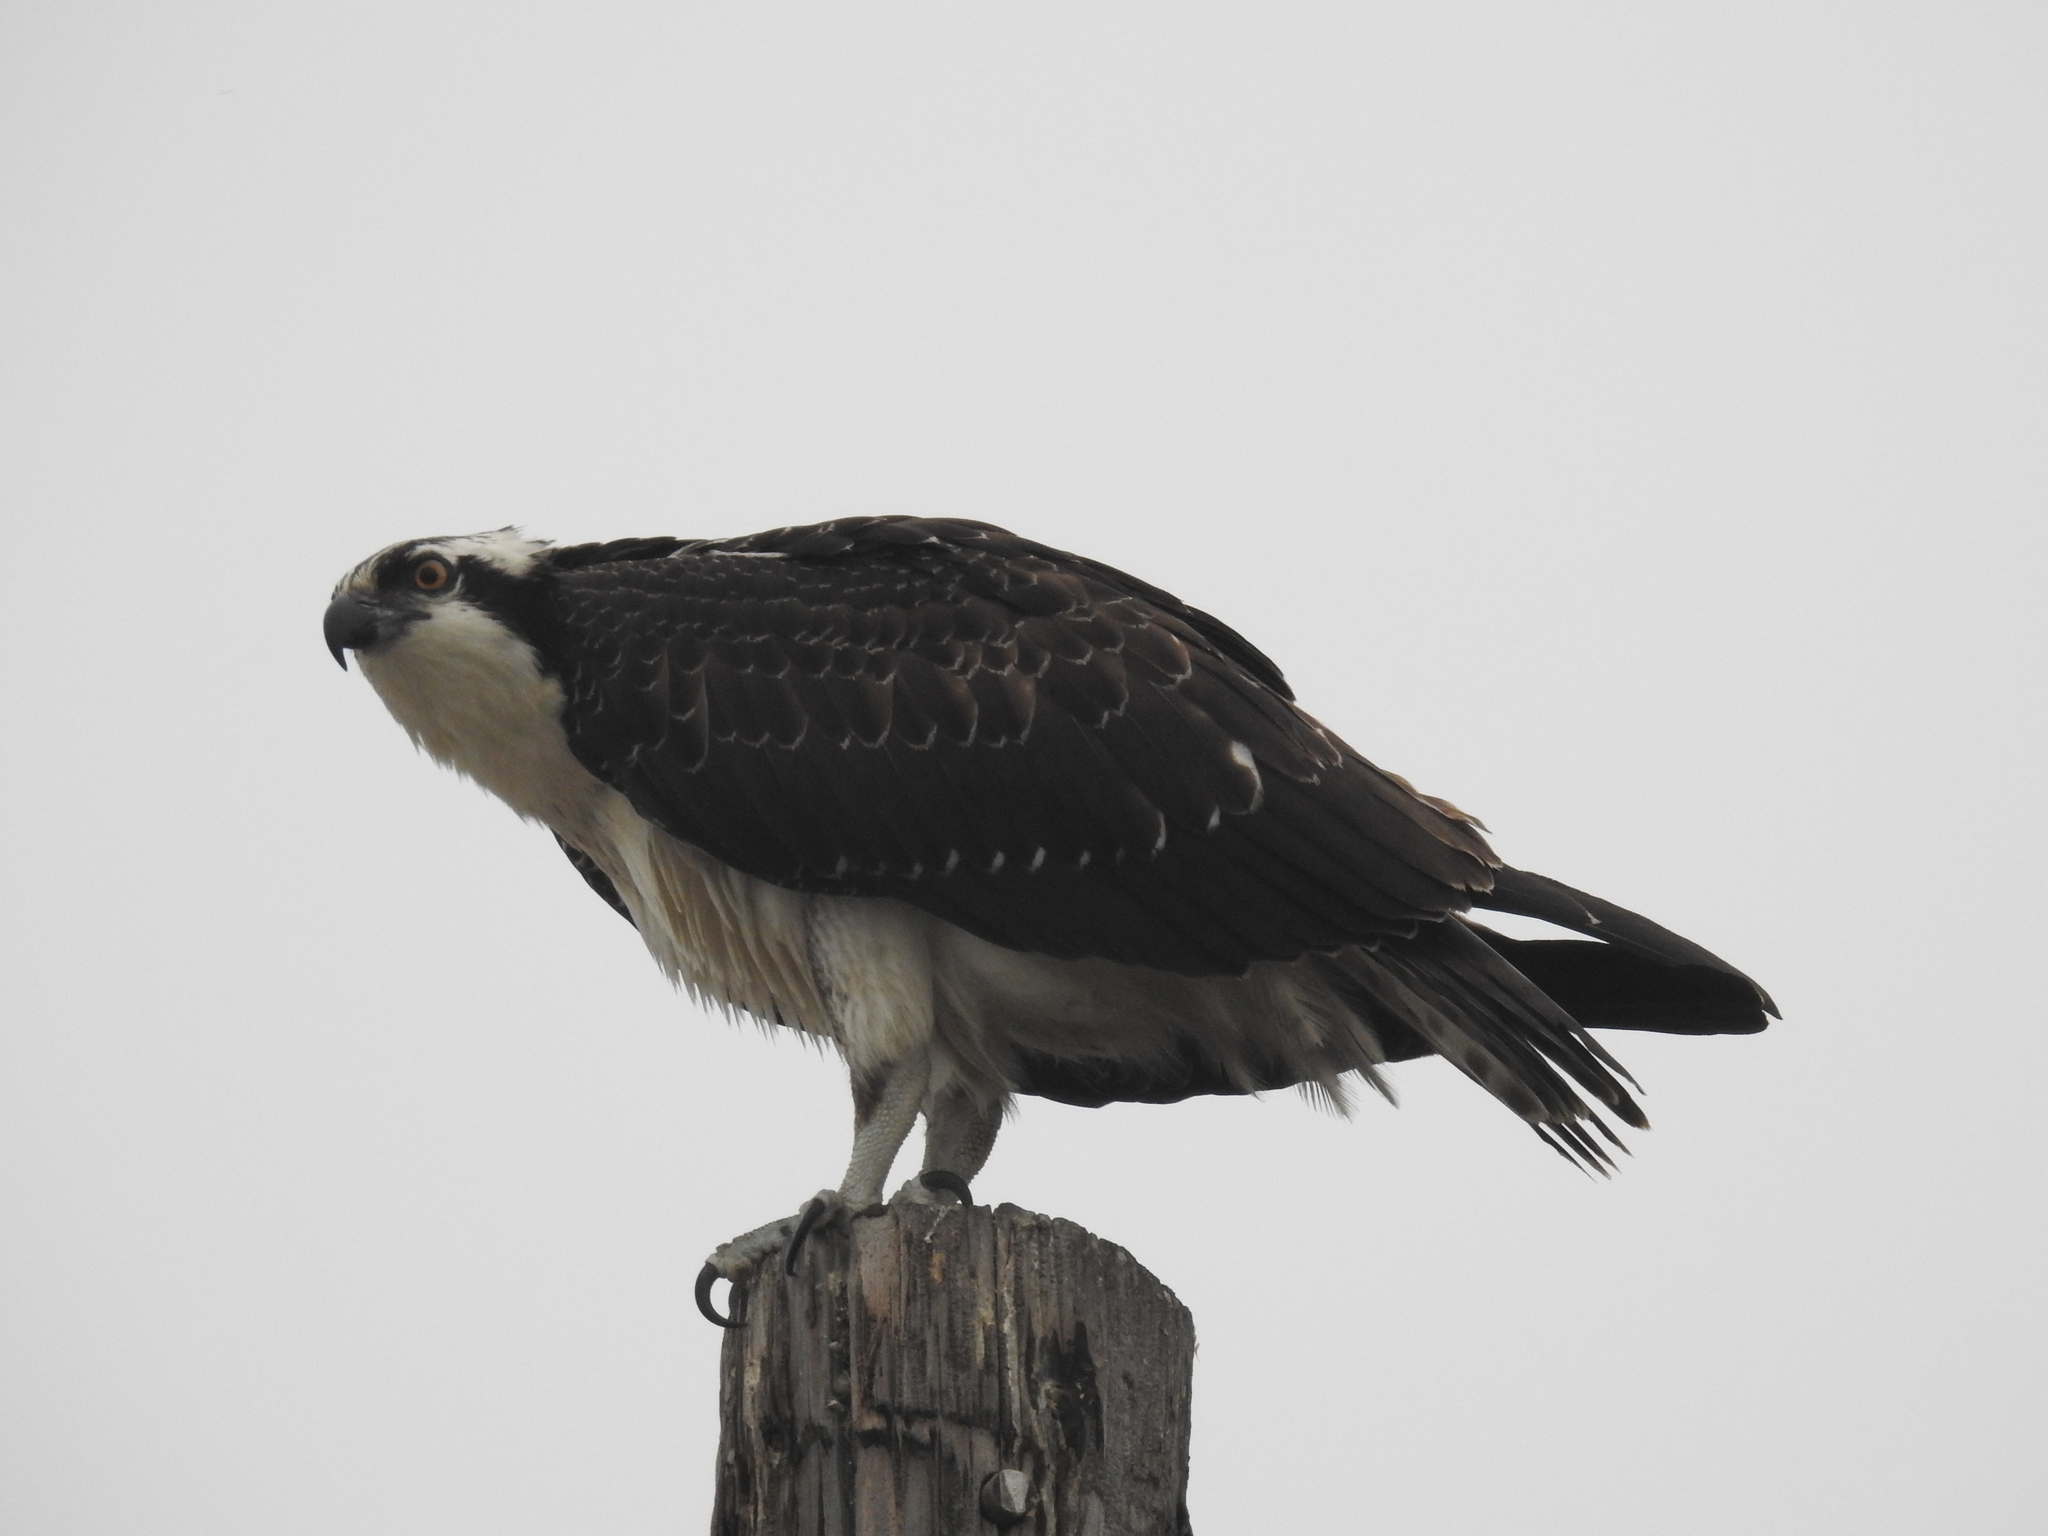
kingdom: Animalia
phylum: Chordata
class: Aves
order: Accipitriformes
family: Pandionidae
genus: Pandion
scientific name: Pandion haliaetus
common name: Osprey
